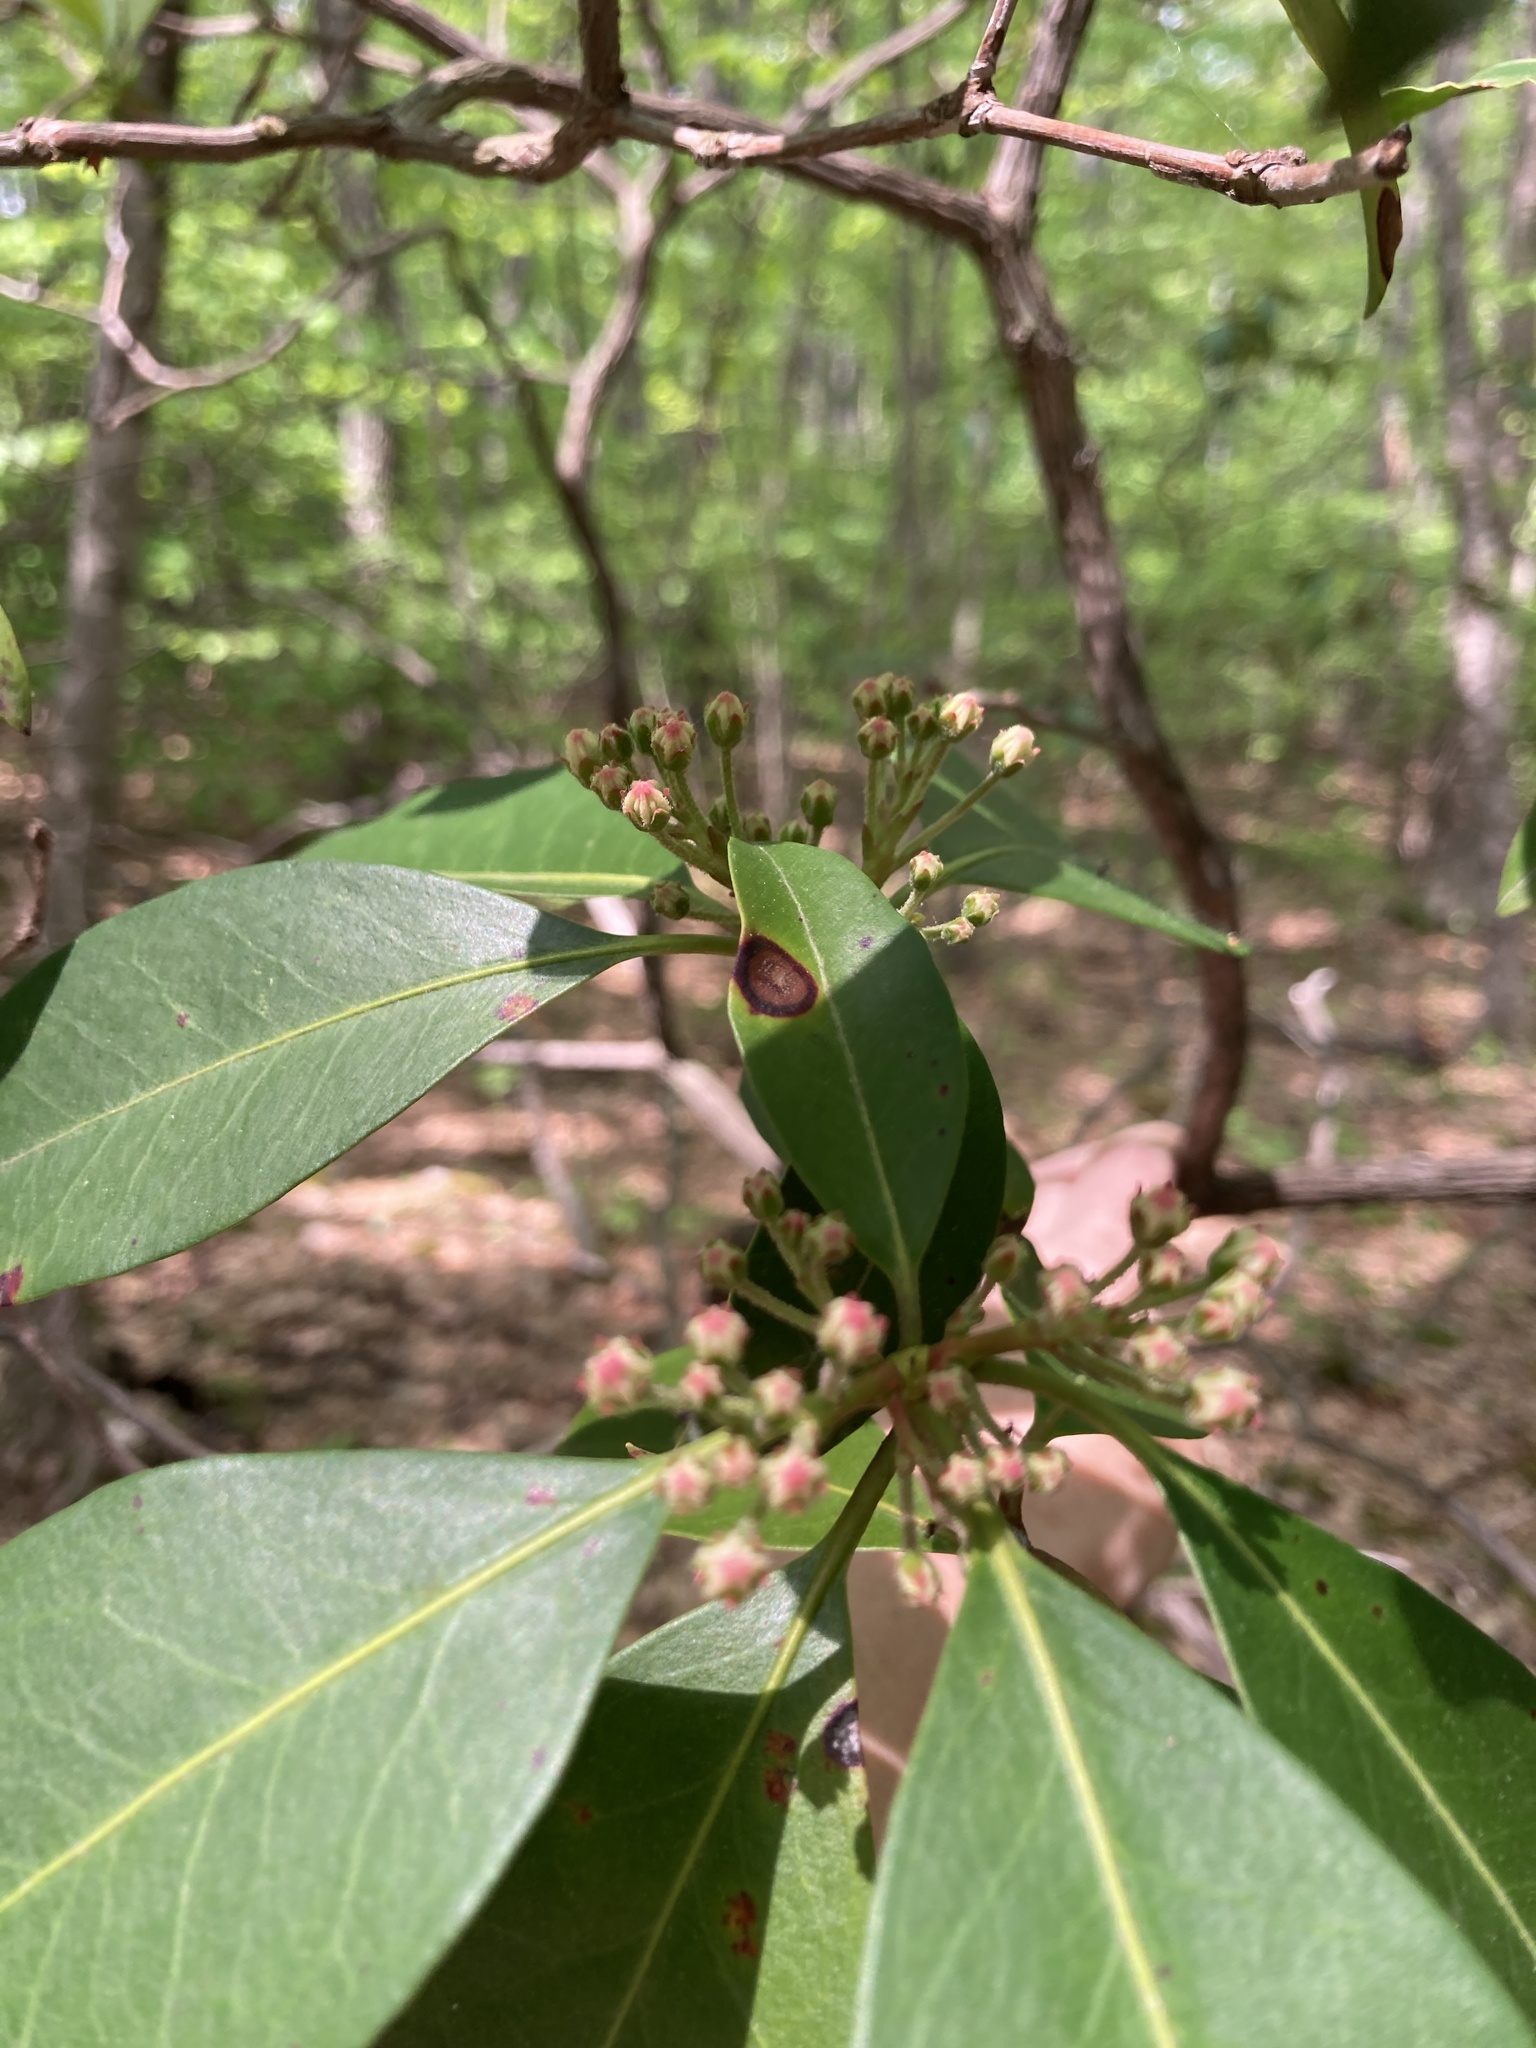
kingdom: Plantae
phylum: Tracheophyta
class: Magnoliopsida
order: Ericales
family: Ericaceae
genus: Kalmia
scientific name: Kalmia latifolia
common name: Mountain-laurel
